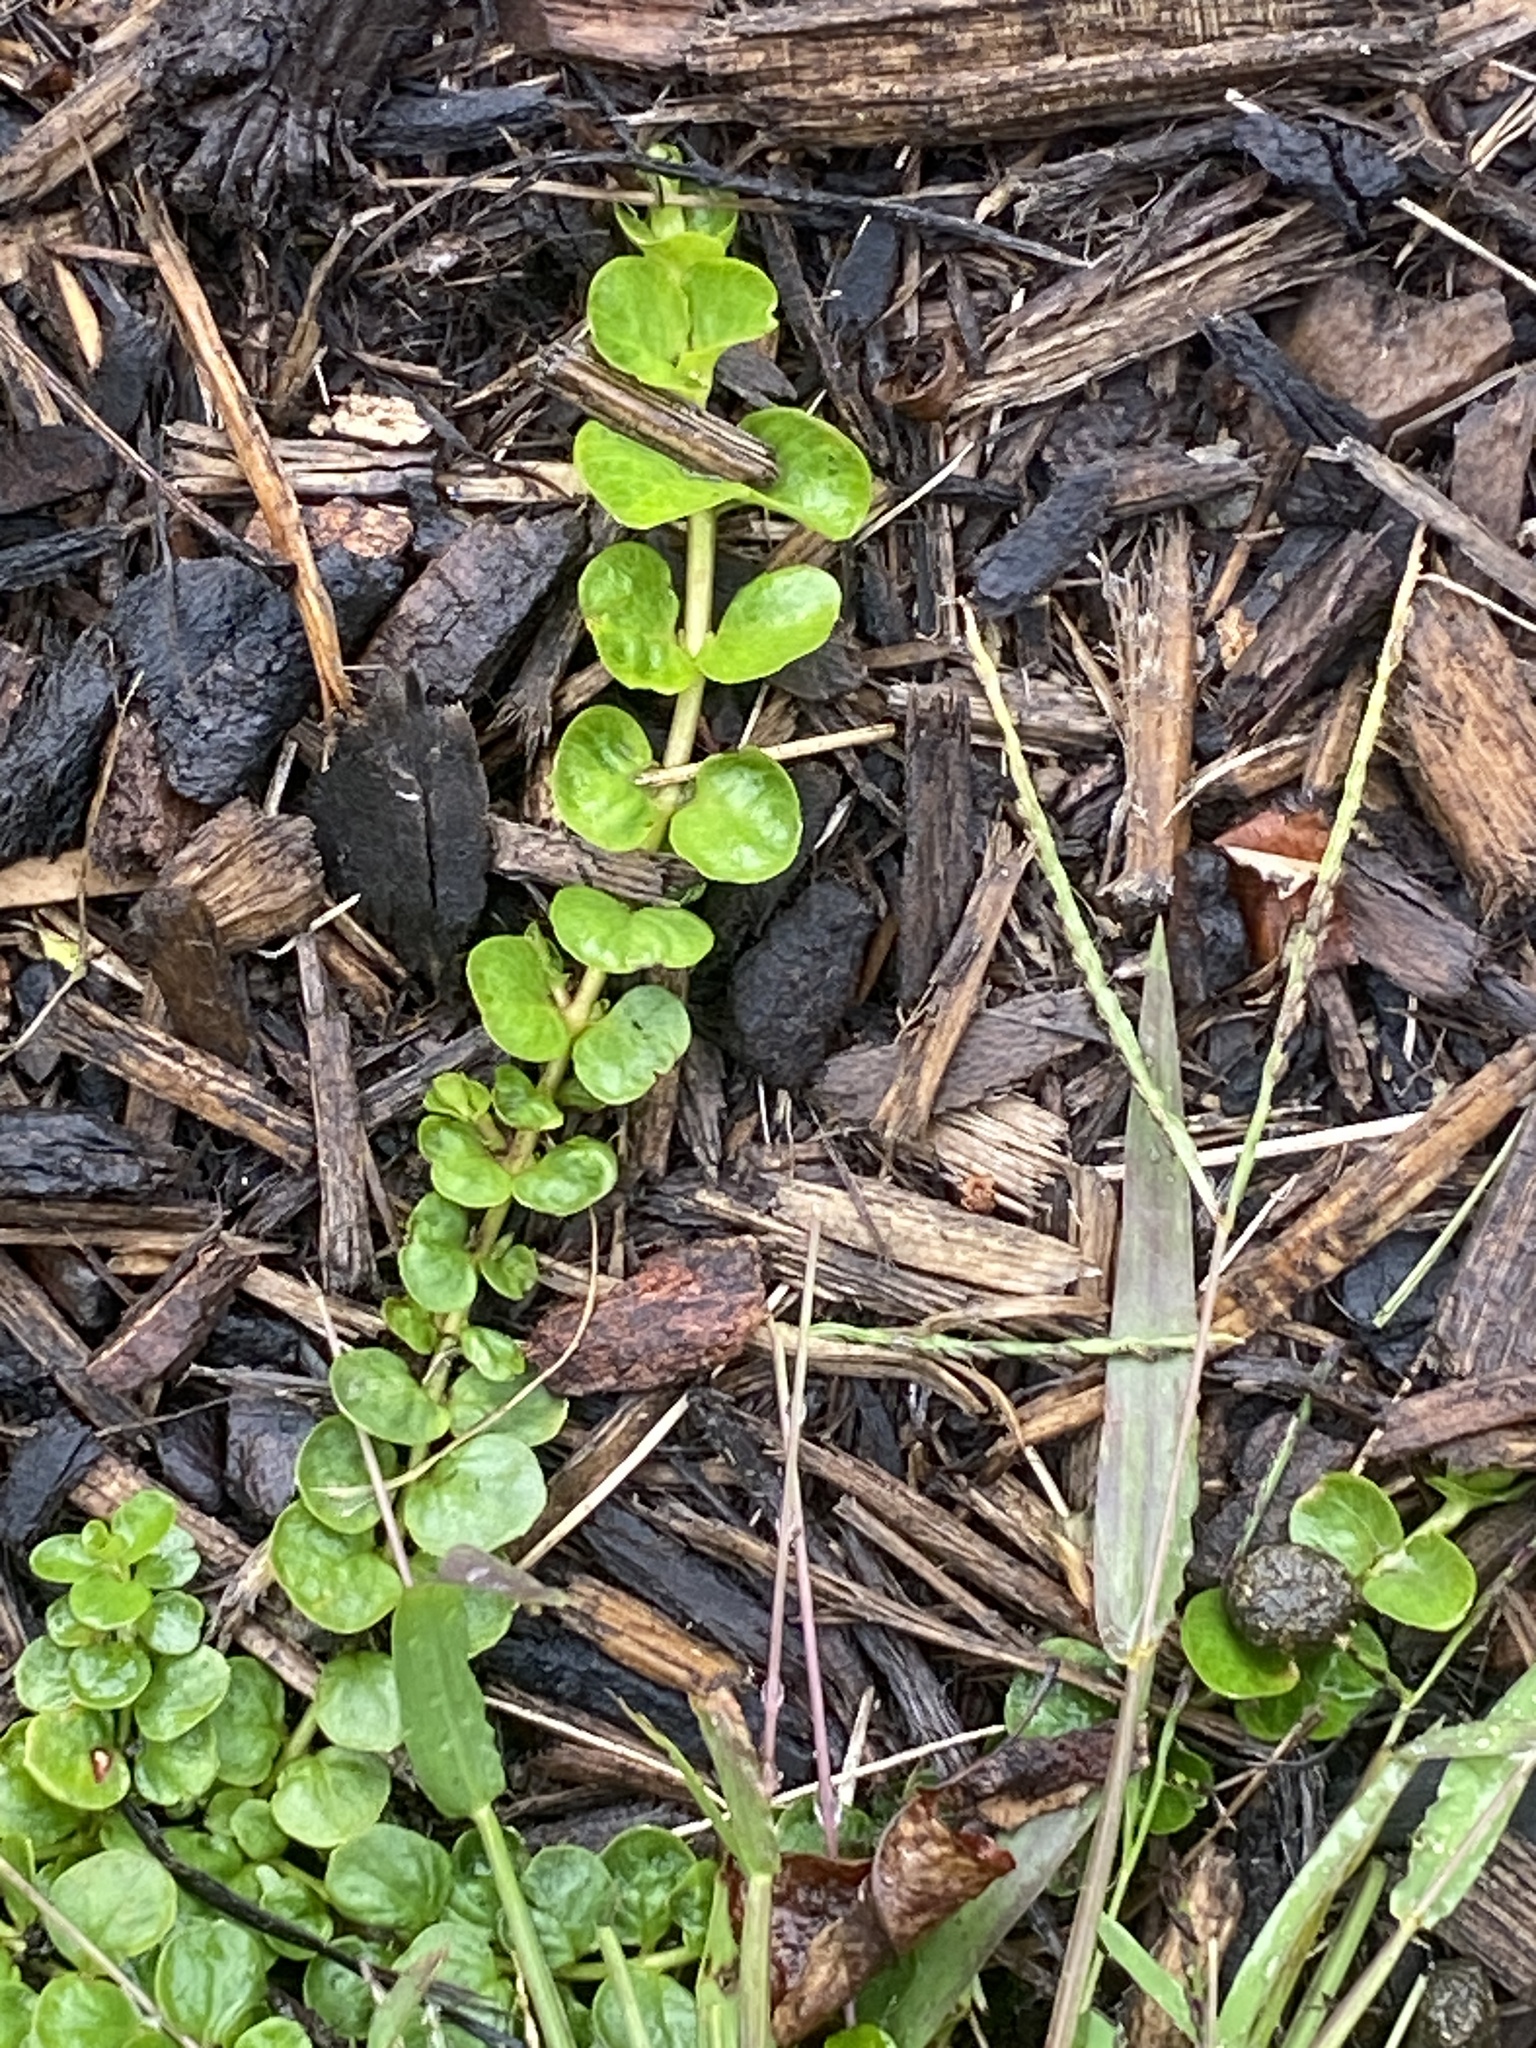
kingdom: Plantae
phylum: Tracheophyta
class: Magnoliopsida
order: Ericales
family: Primulaceae
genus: Lysimachia
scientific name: Lysimachia nummularia
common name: Moneywort
